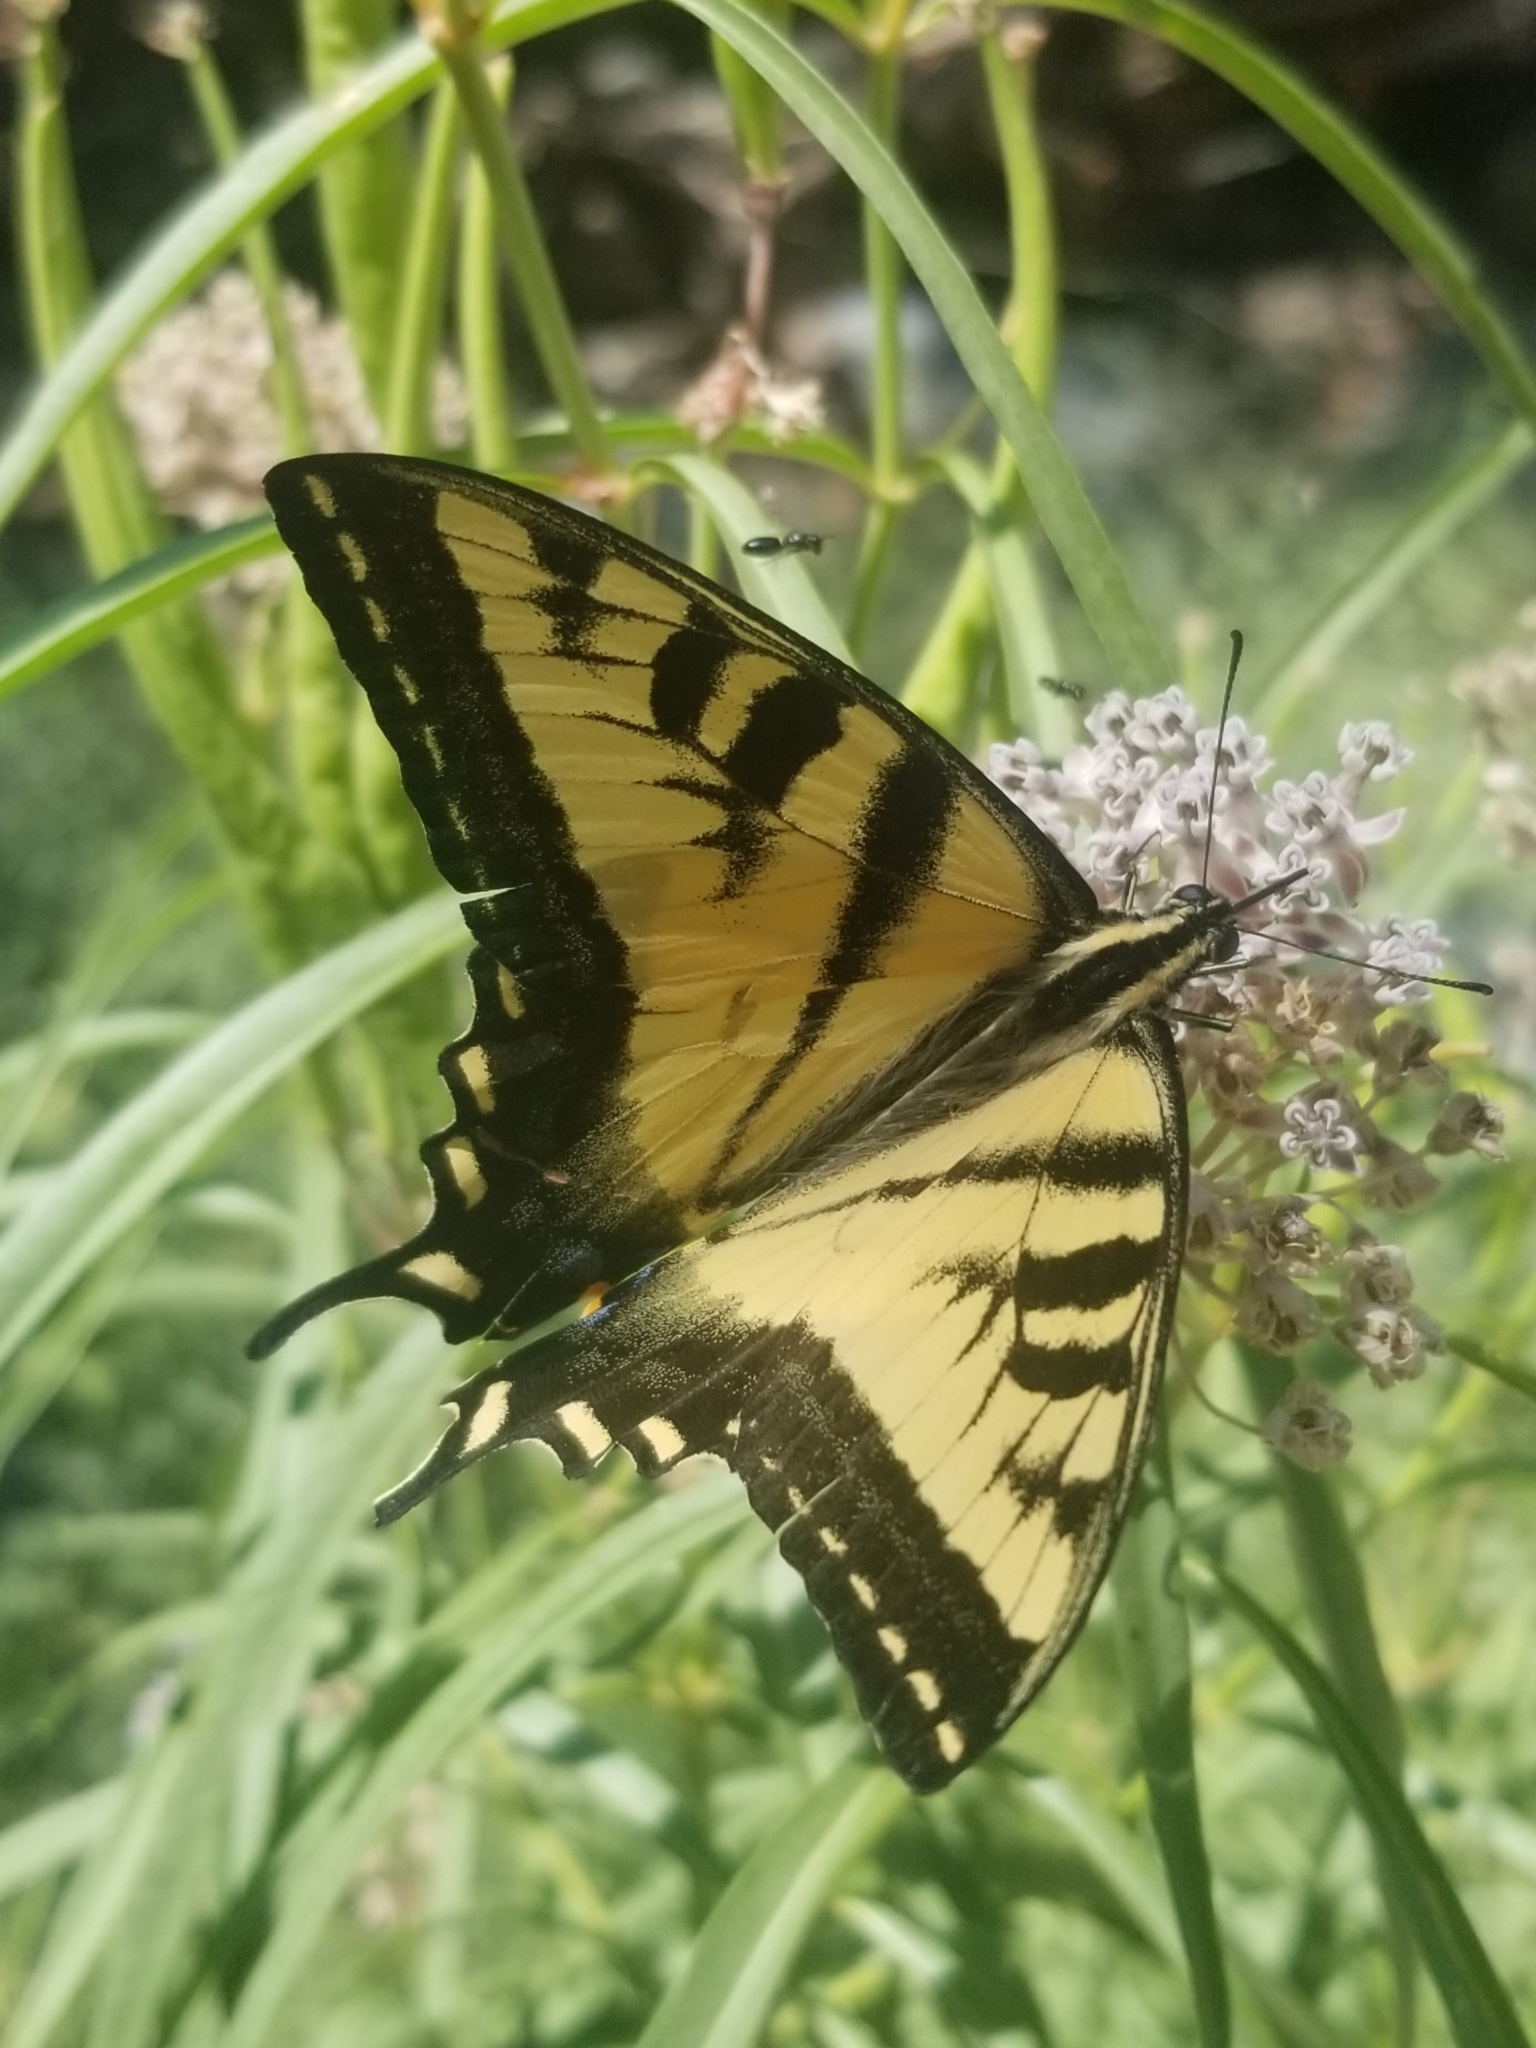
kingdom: Animalia
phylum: Arthropoda
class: Insecta
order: Lepidoptera
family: Papilionidae
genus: Papilio
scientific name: Papilio rutulus
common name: Western tiger swallowtail
